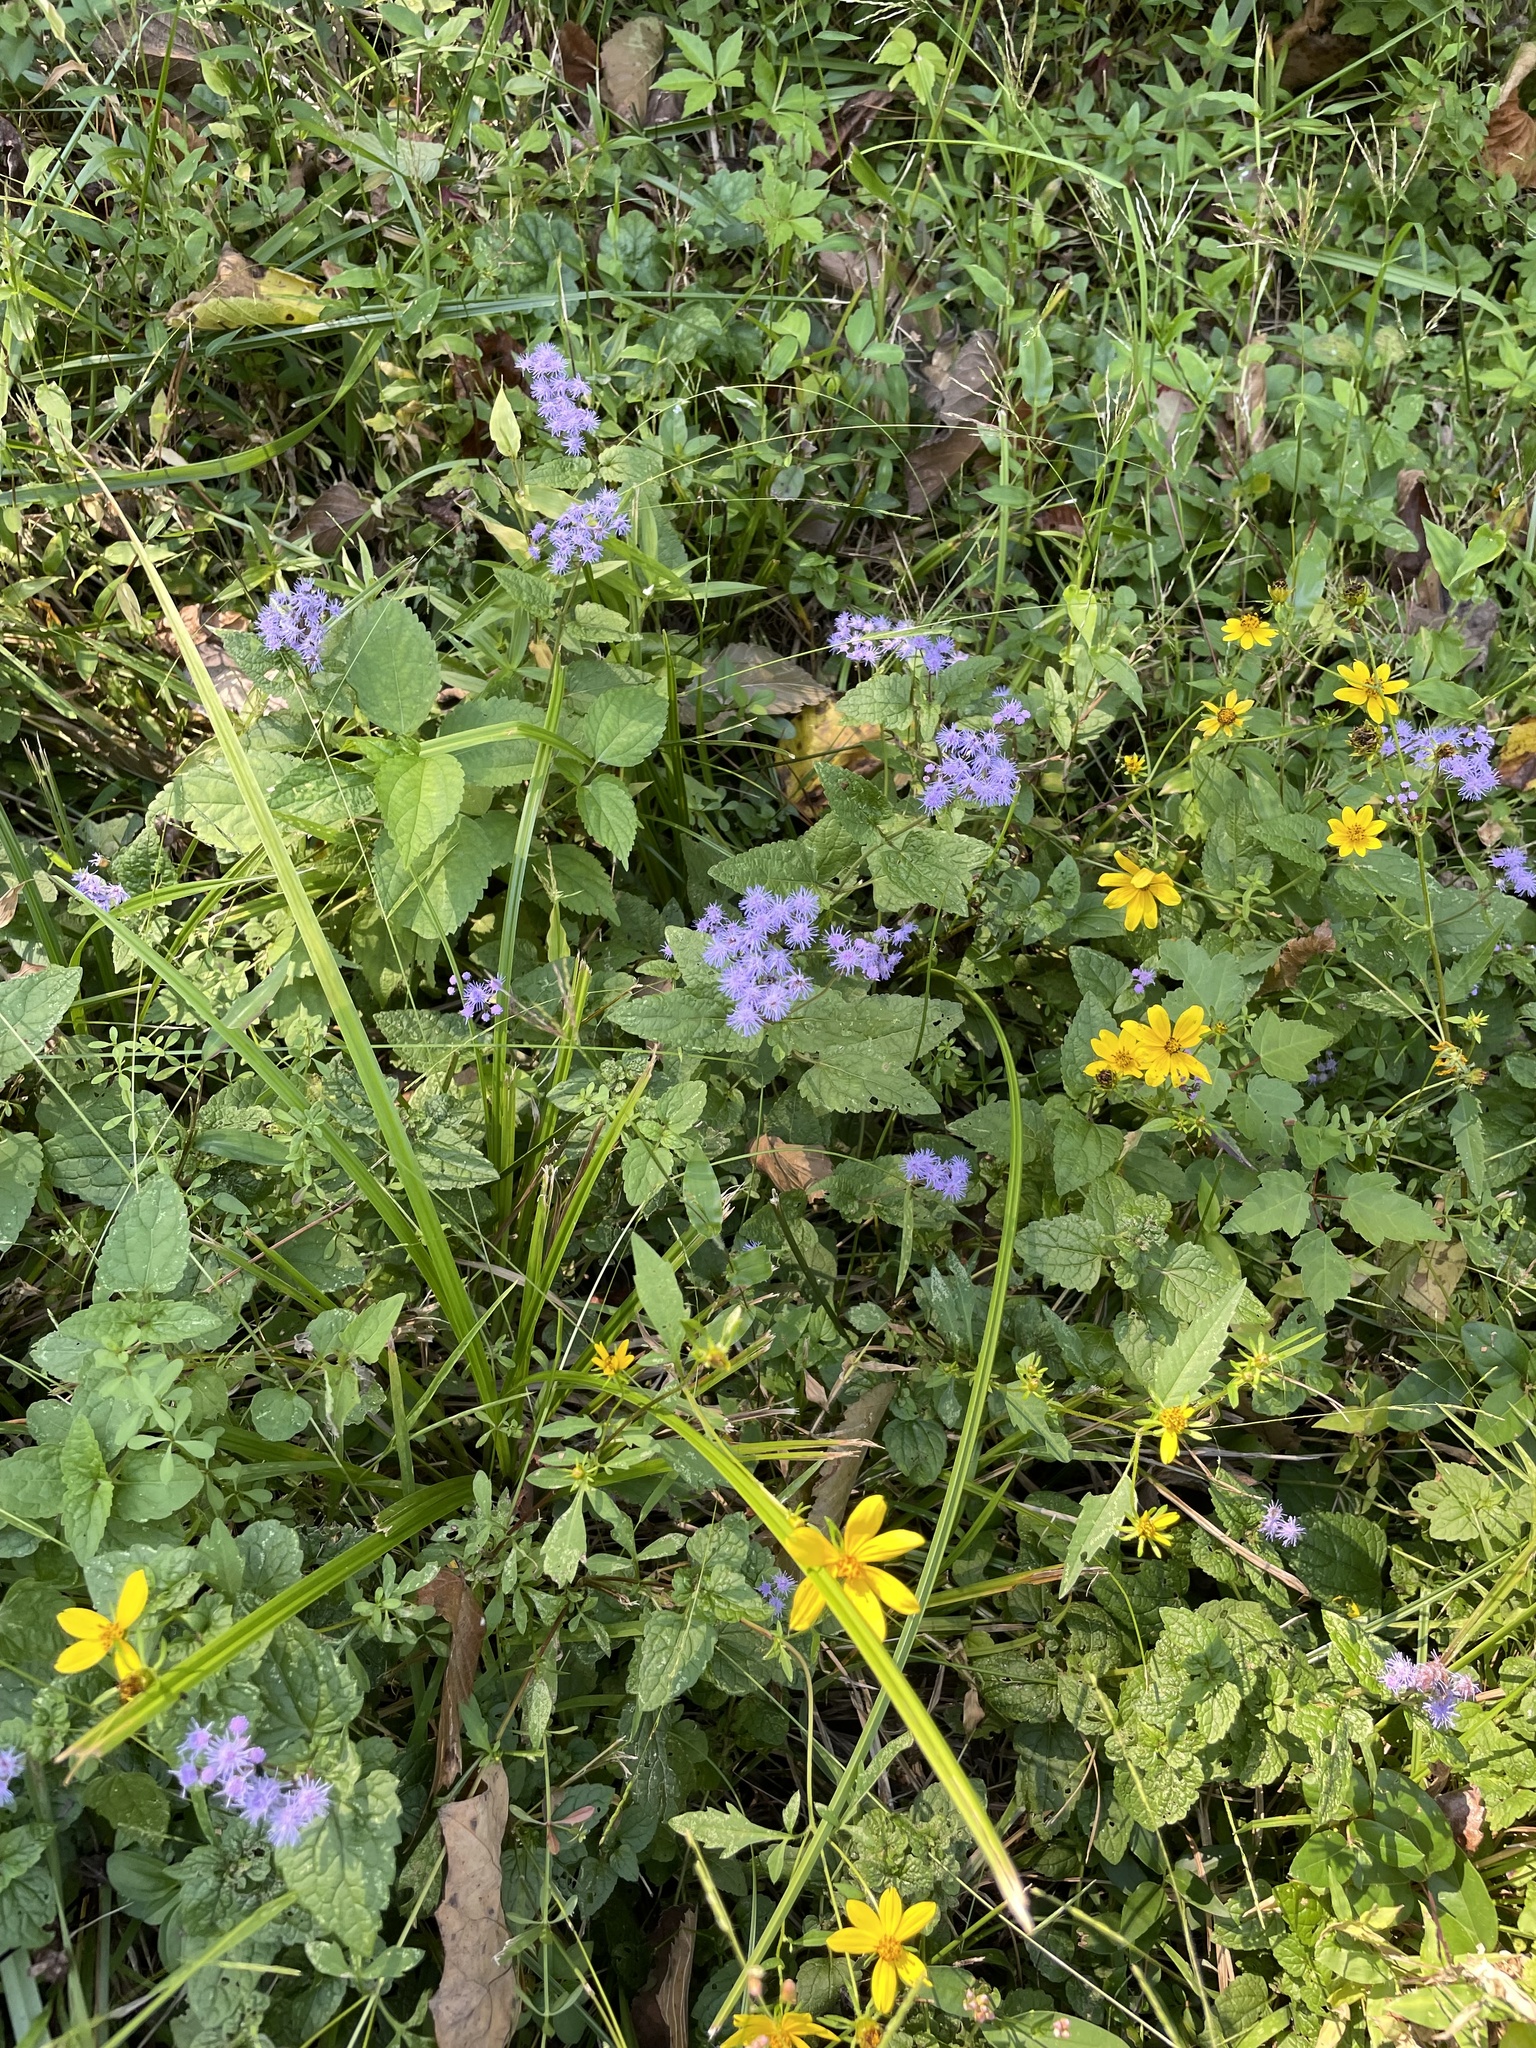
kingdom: Plantae
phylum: Tracheophyta
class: Magnoliopsida
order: Asterales
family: Asteraceae
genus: Conoclinium
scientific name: Conoclinium coelestinum
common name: Blue mistflower
